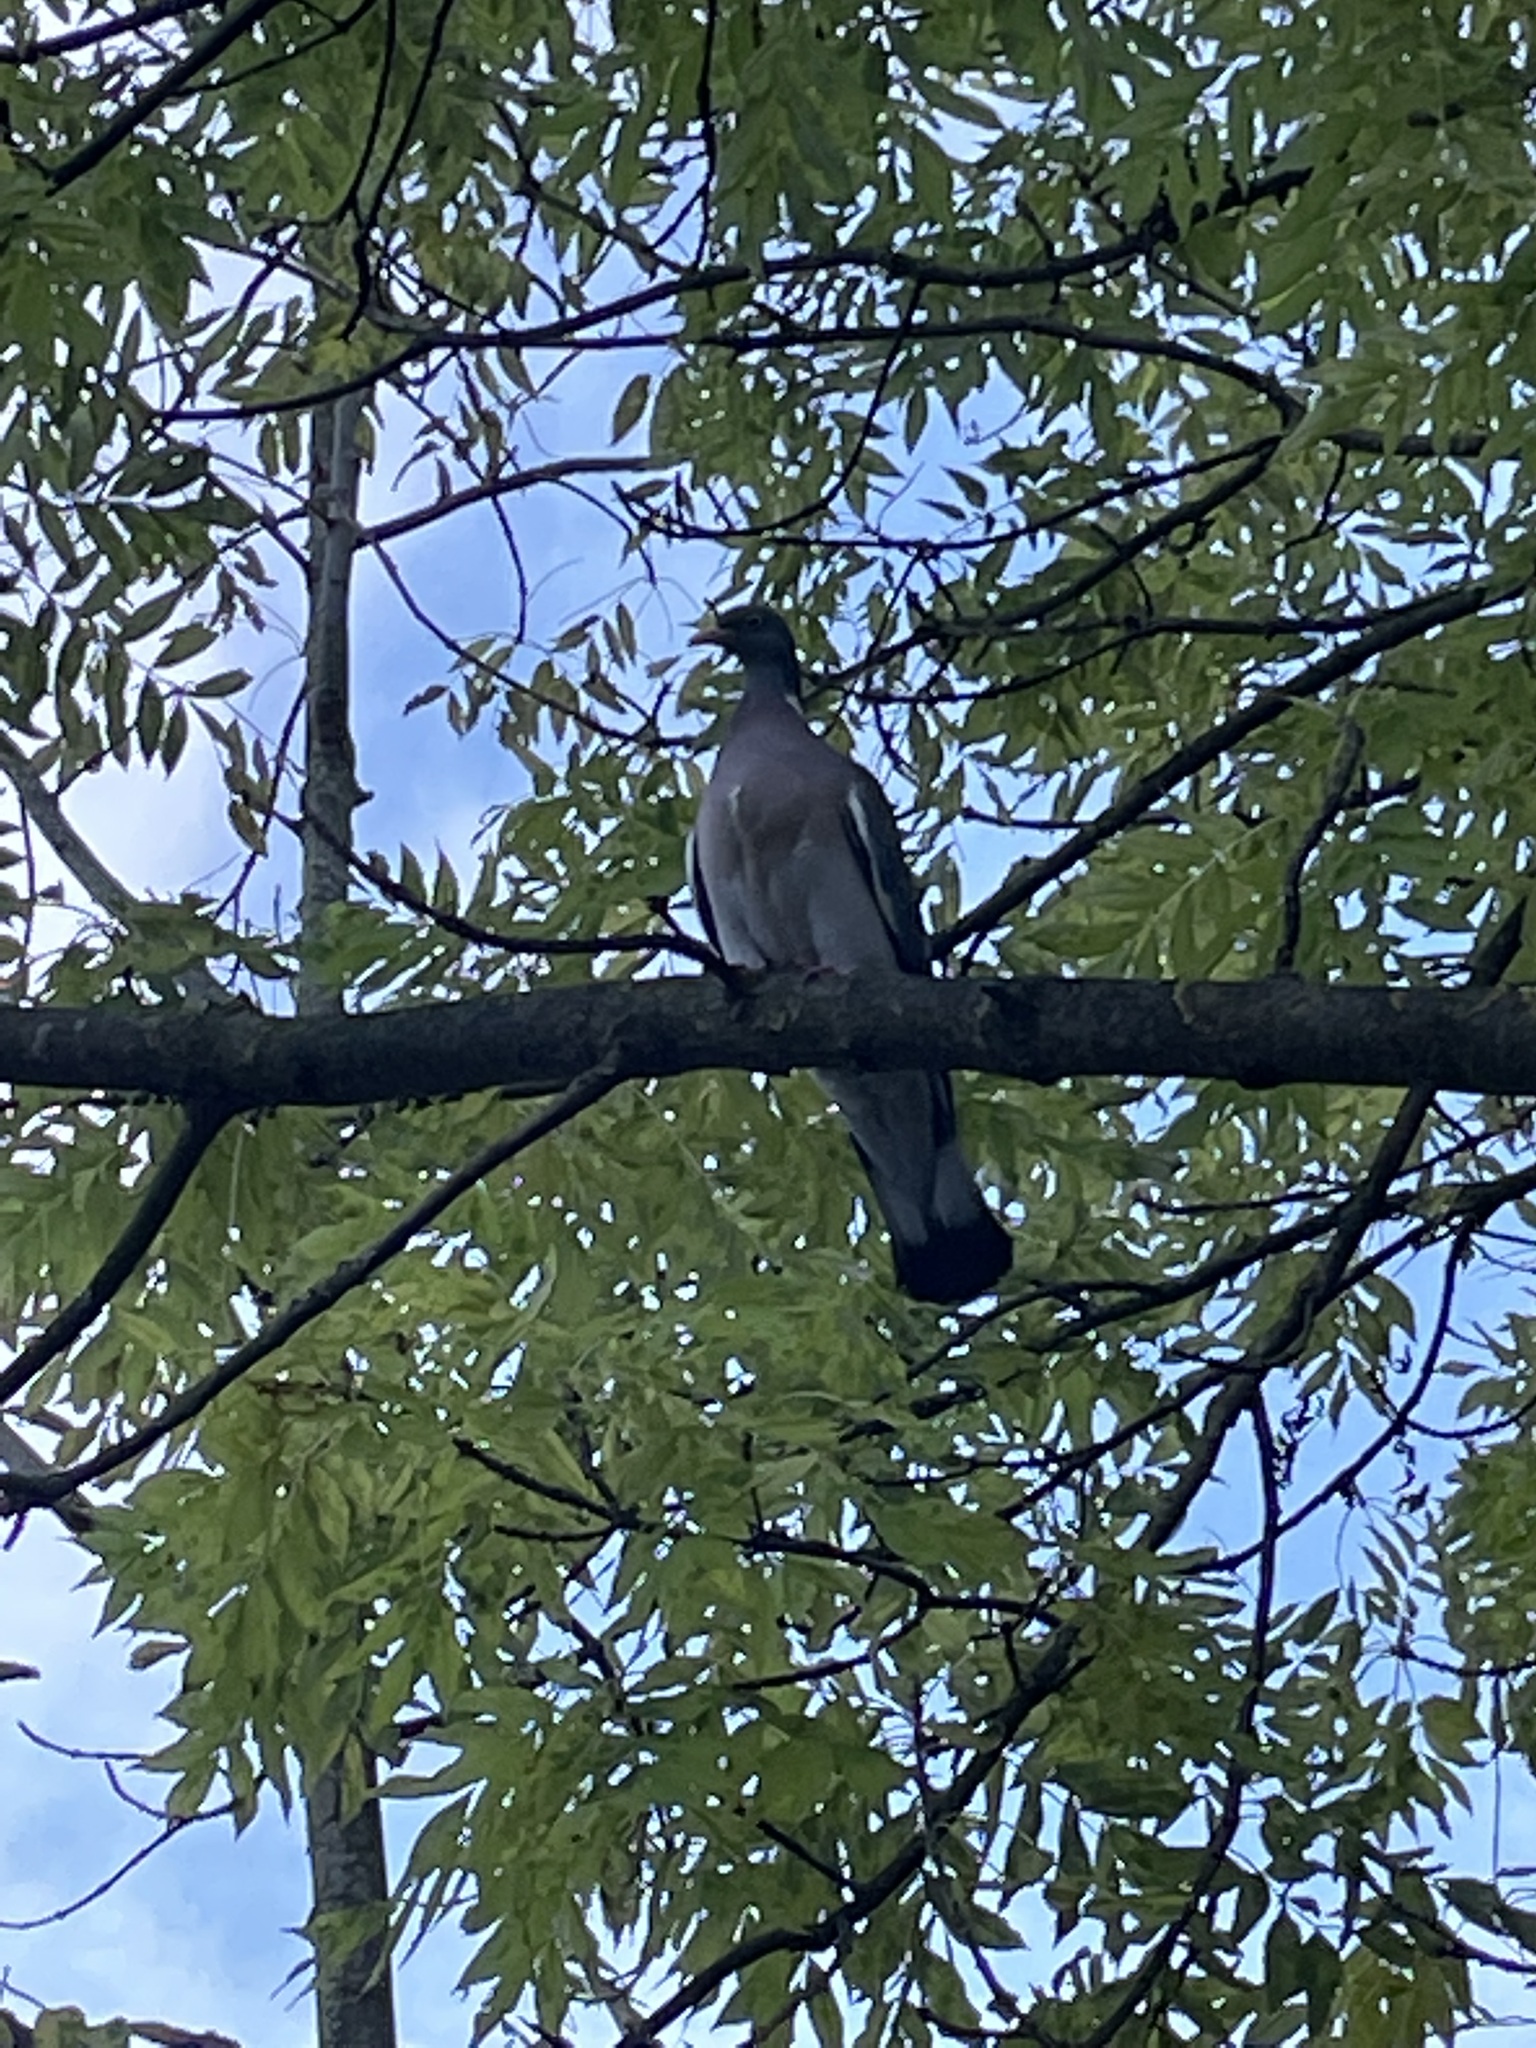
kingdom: Plantae
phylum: Tracheophyta
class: Magnoliopsida
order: Lamiales
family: Oleaceae
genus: Fraxinus
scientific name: Fraxinus excelsior
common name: European ash
